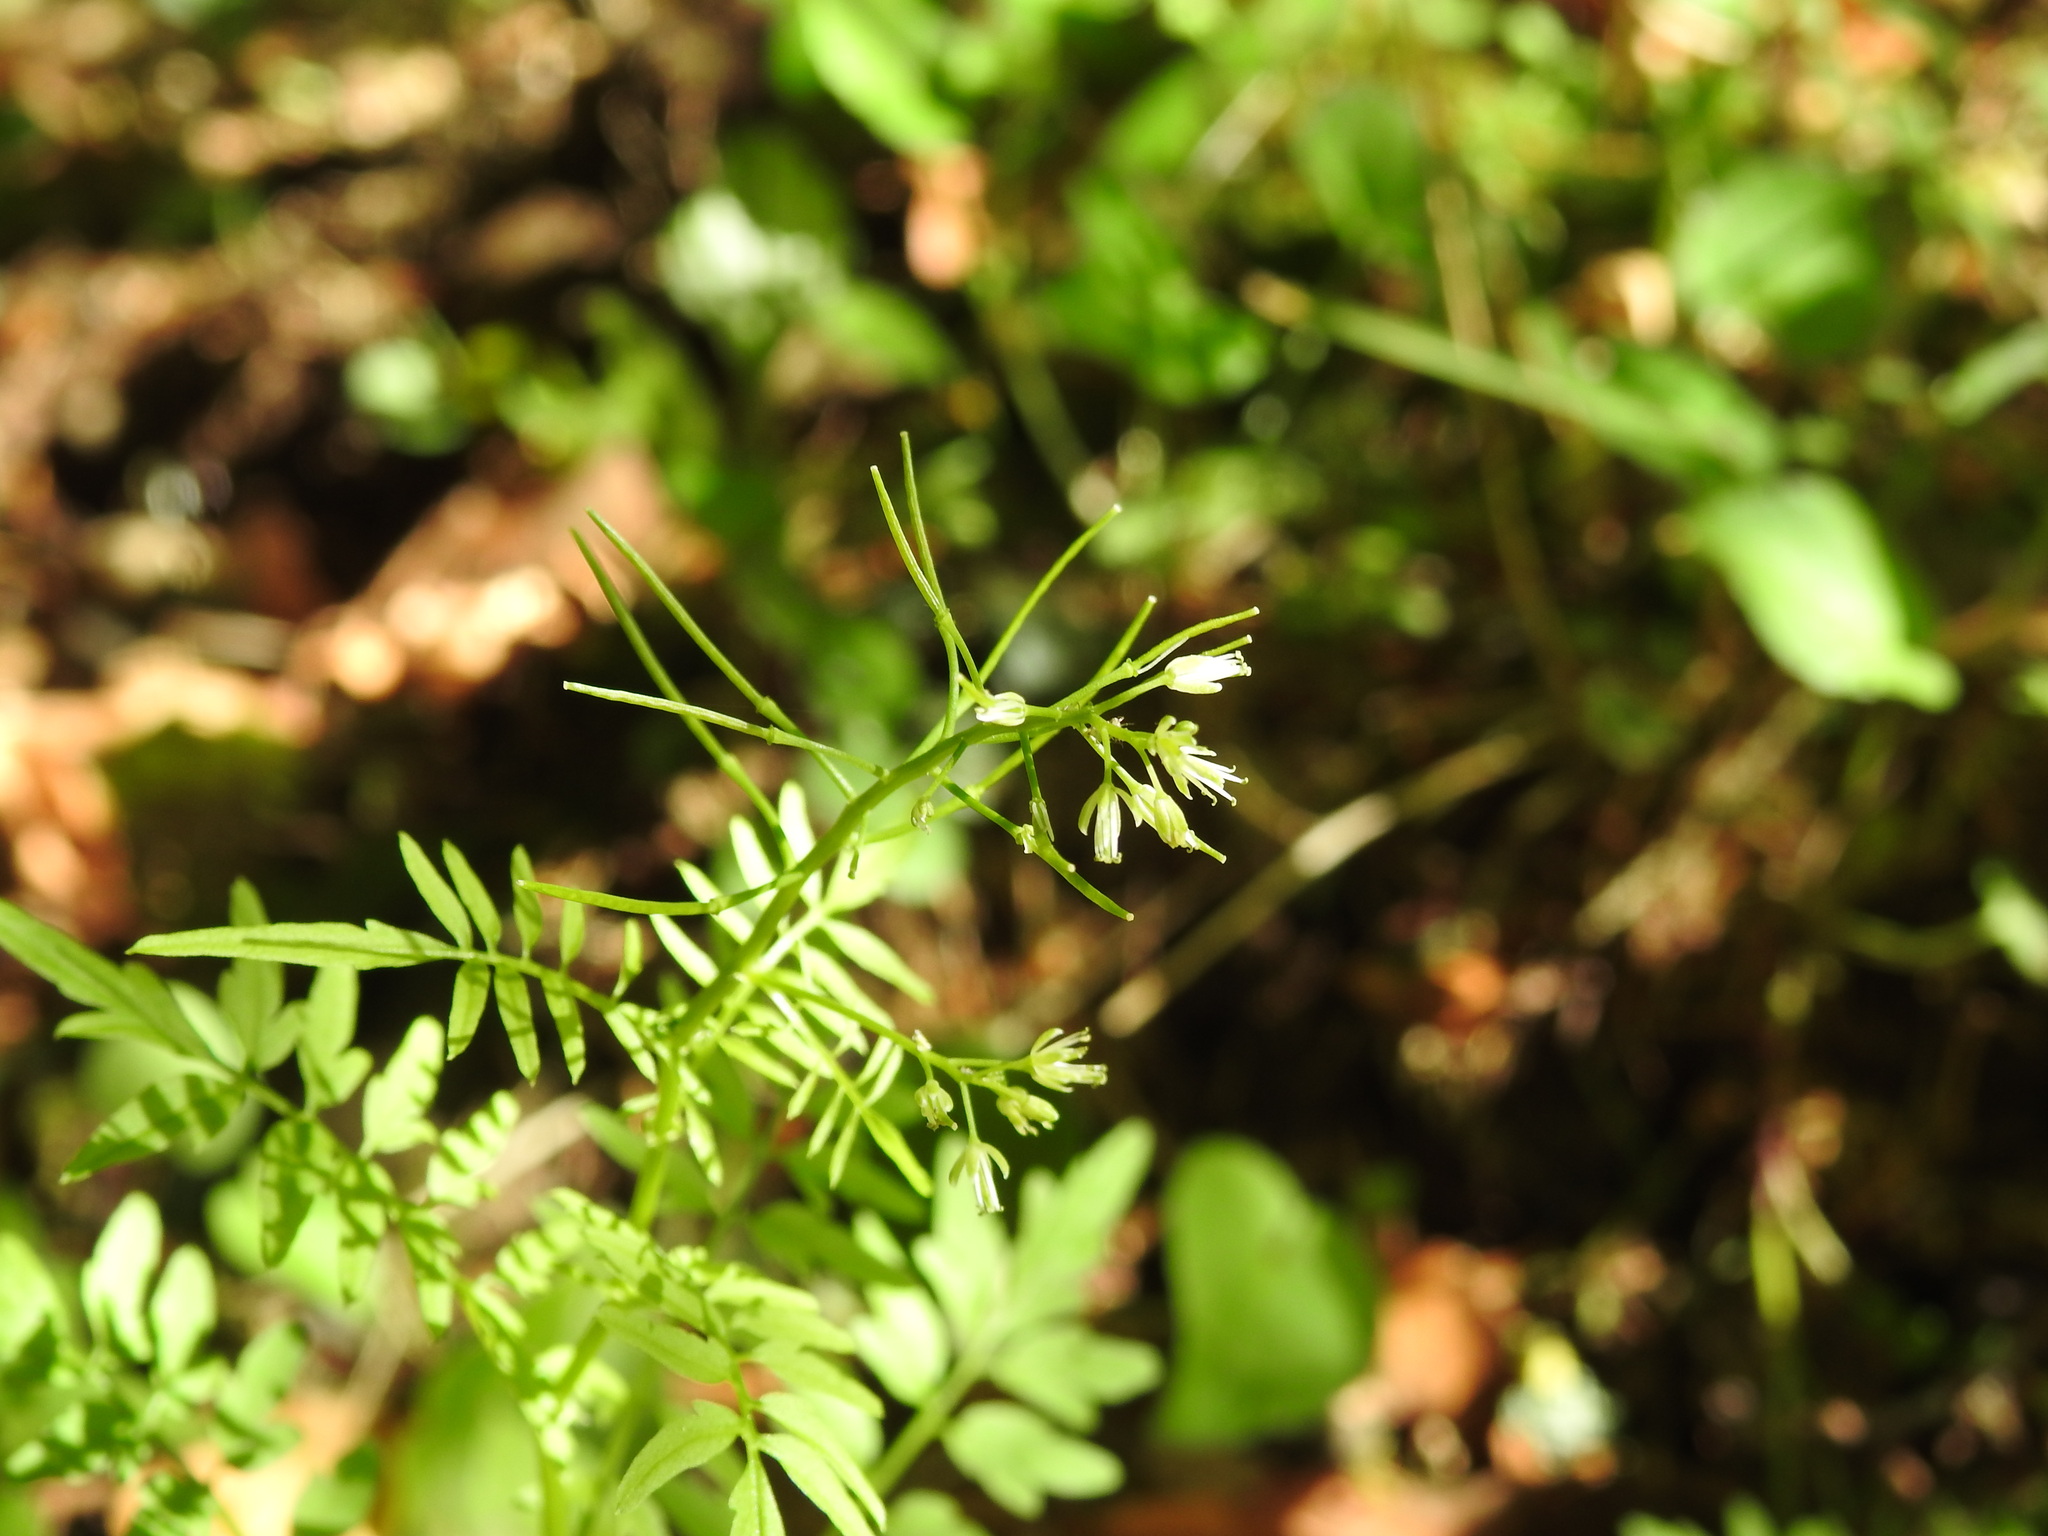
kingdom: Plantae
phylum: Tracheophyta
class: Magnoliopsida
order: Brassicales
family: Brassicaceae
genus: Cardamine
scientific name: Cardamine impatiens
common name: Narrow-leaved bitter-cress
